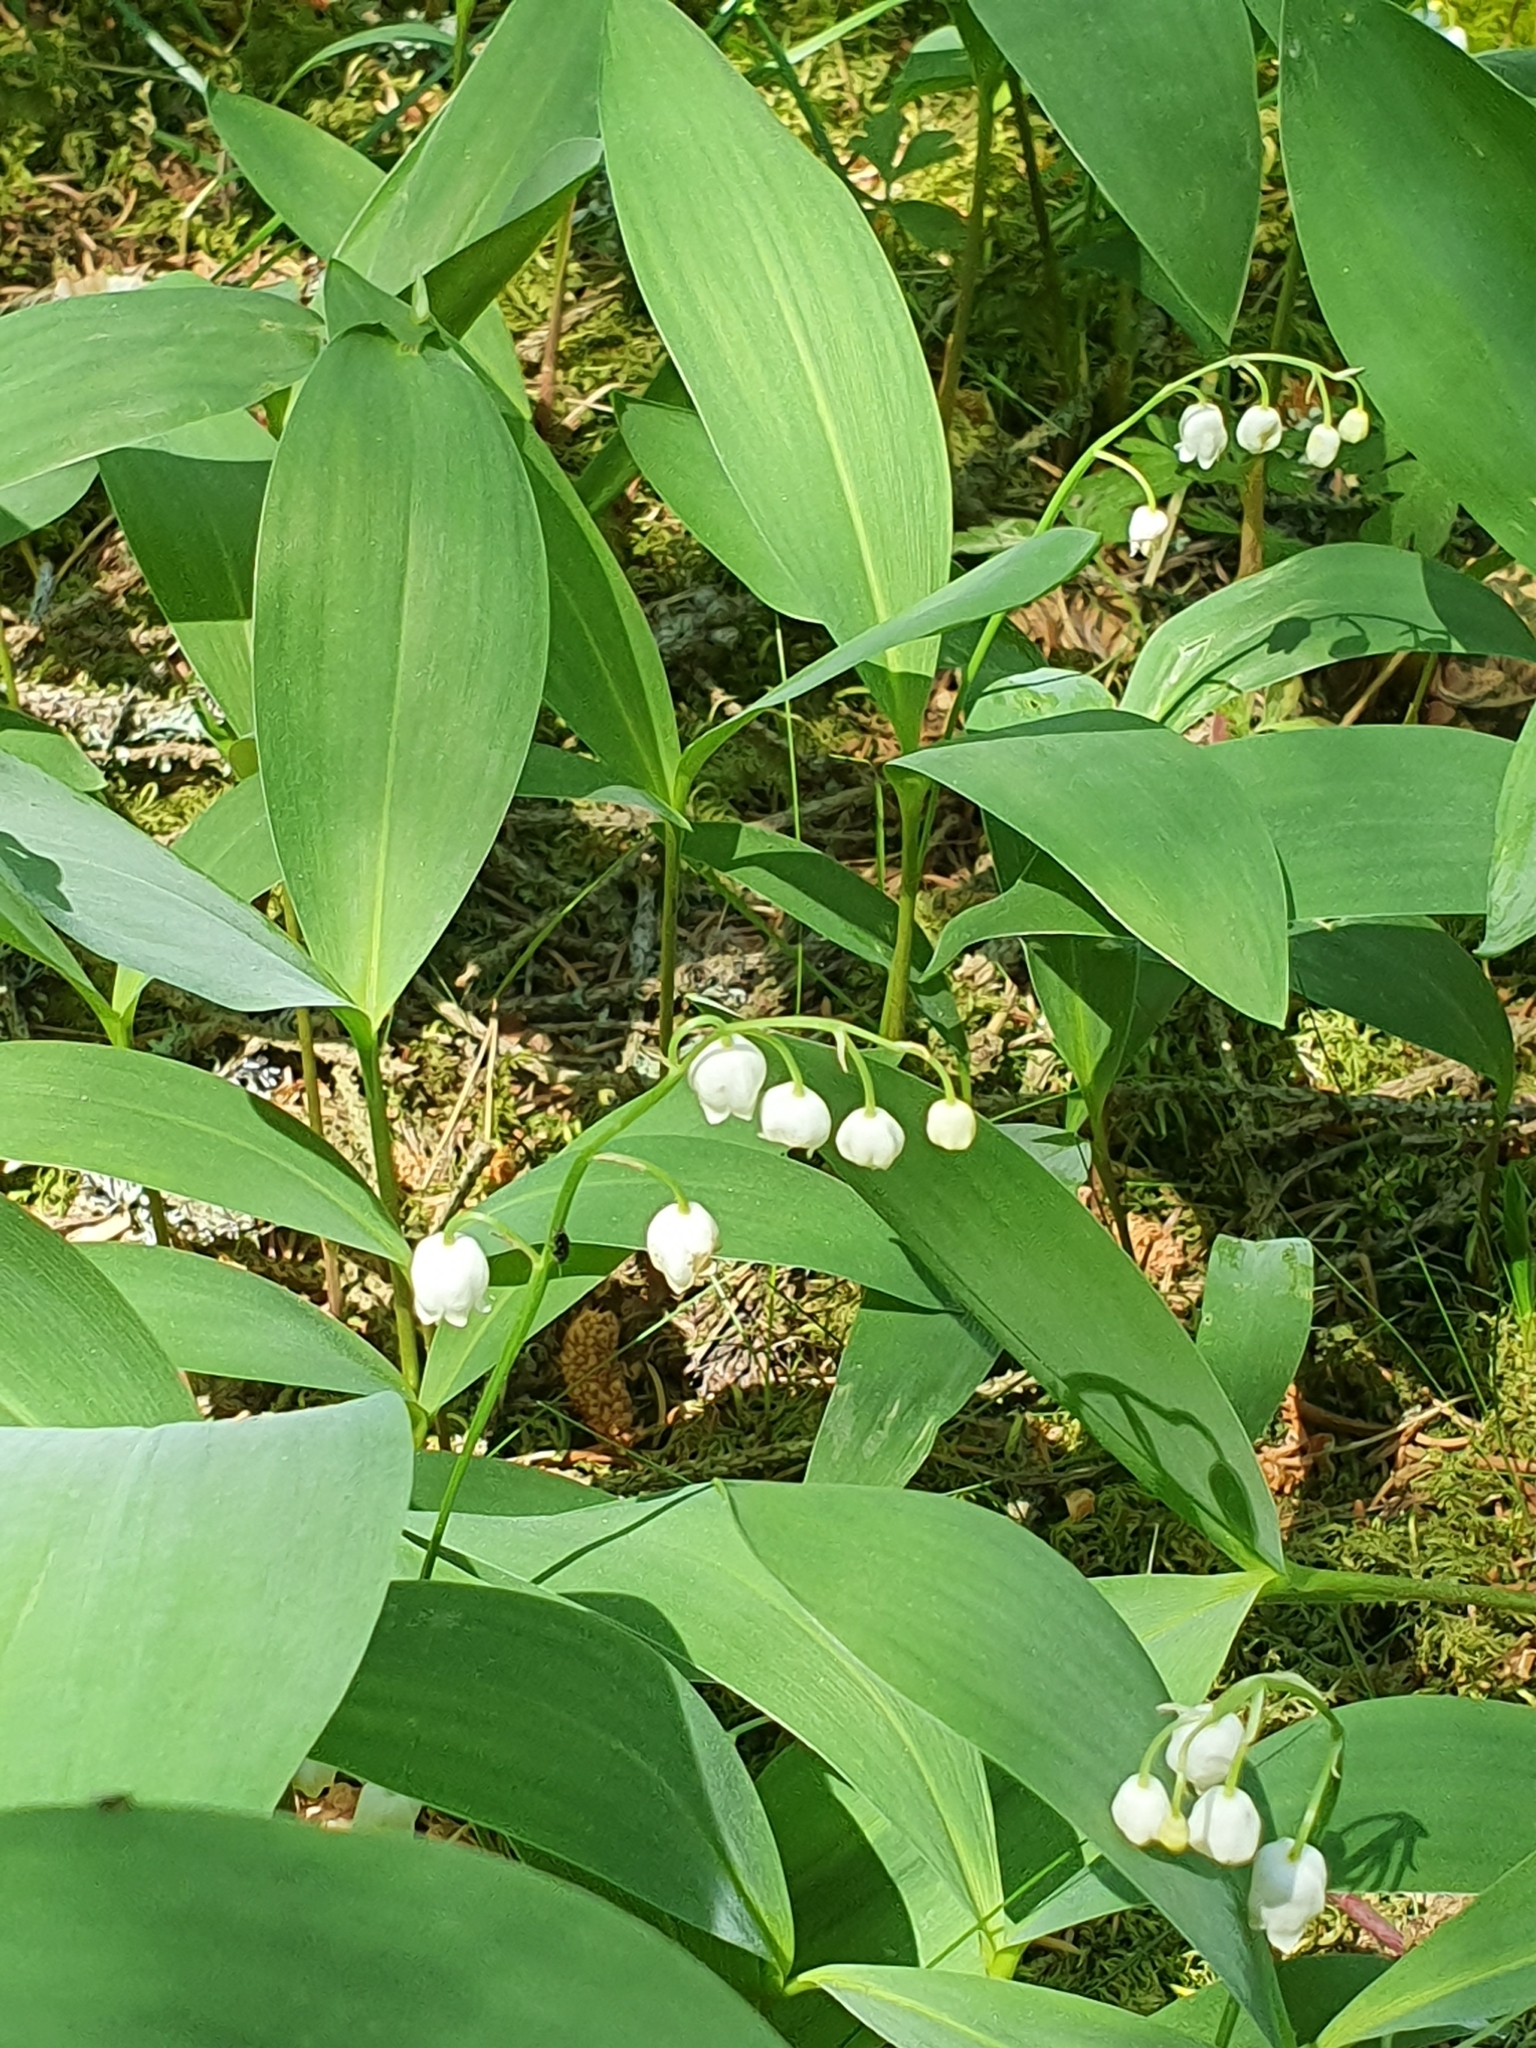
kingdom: Plantae
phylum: Tracheophyta
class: Liliopsida
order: Asparagales
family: Asparagaceae
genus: Convallaria
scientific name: Convallaria majalis
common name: Lily-of-the-valley
